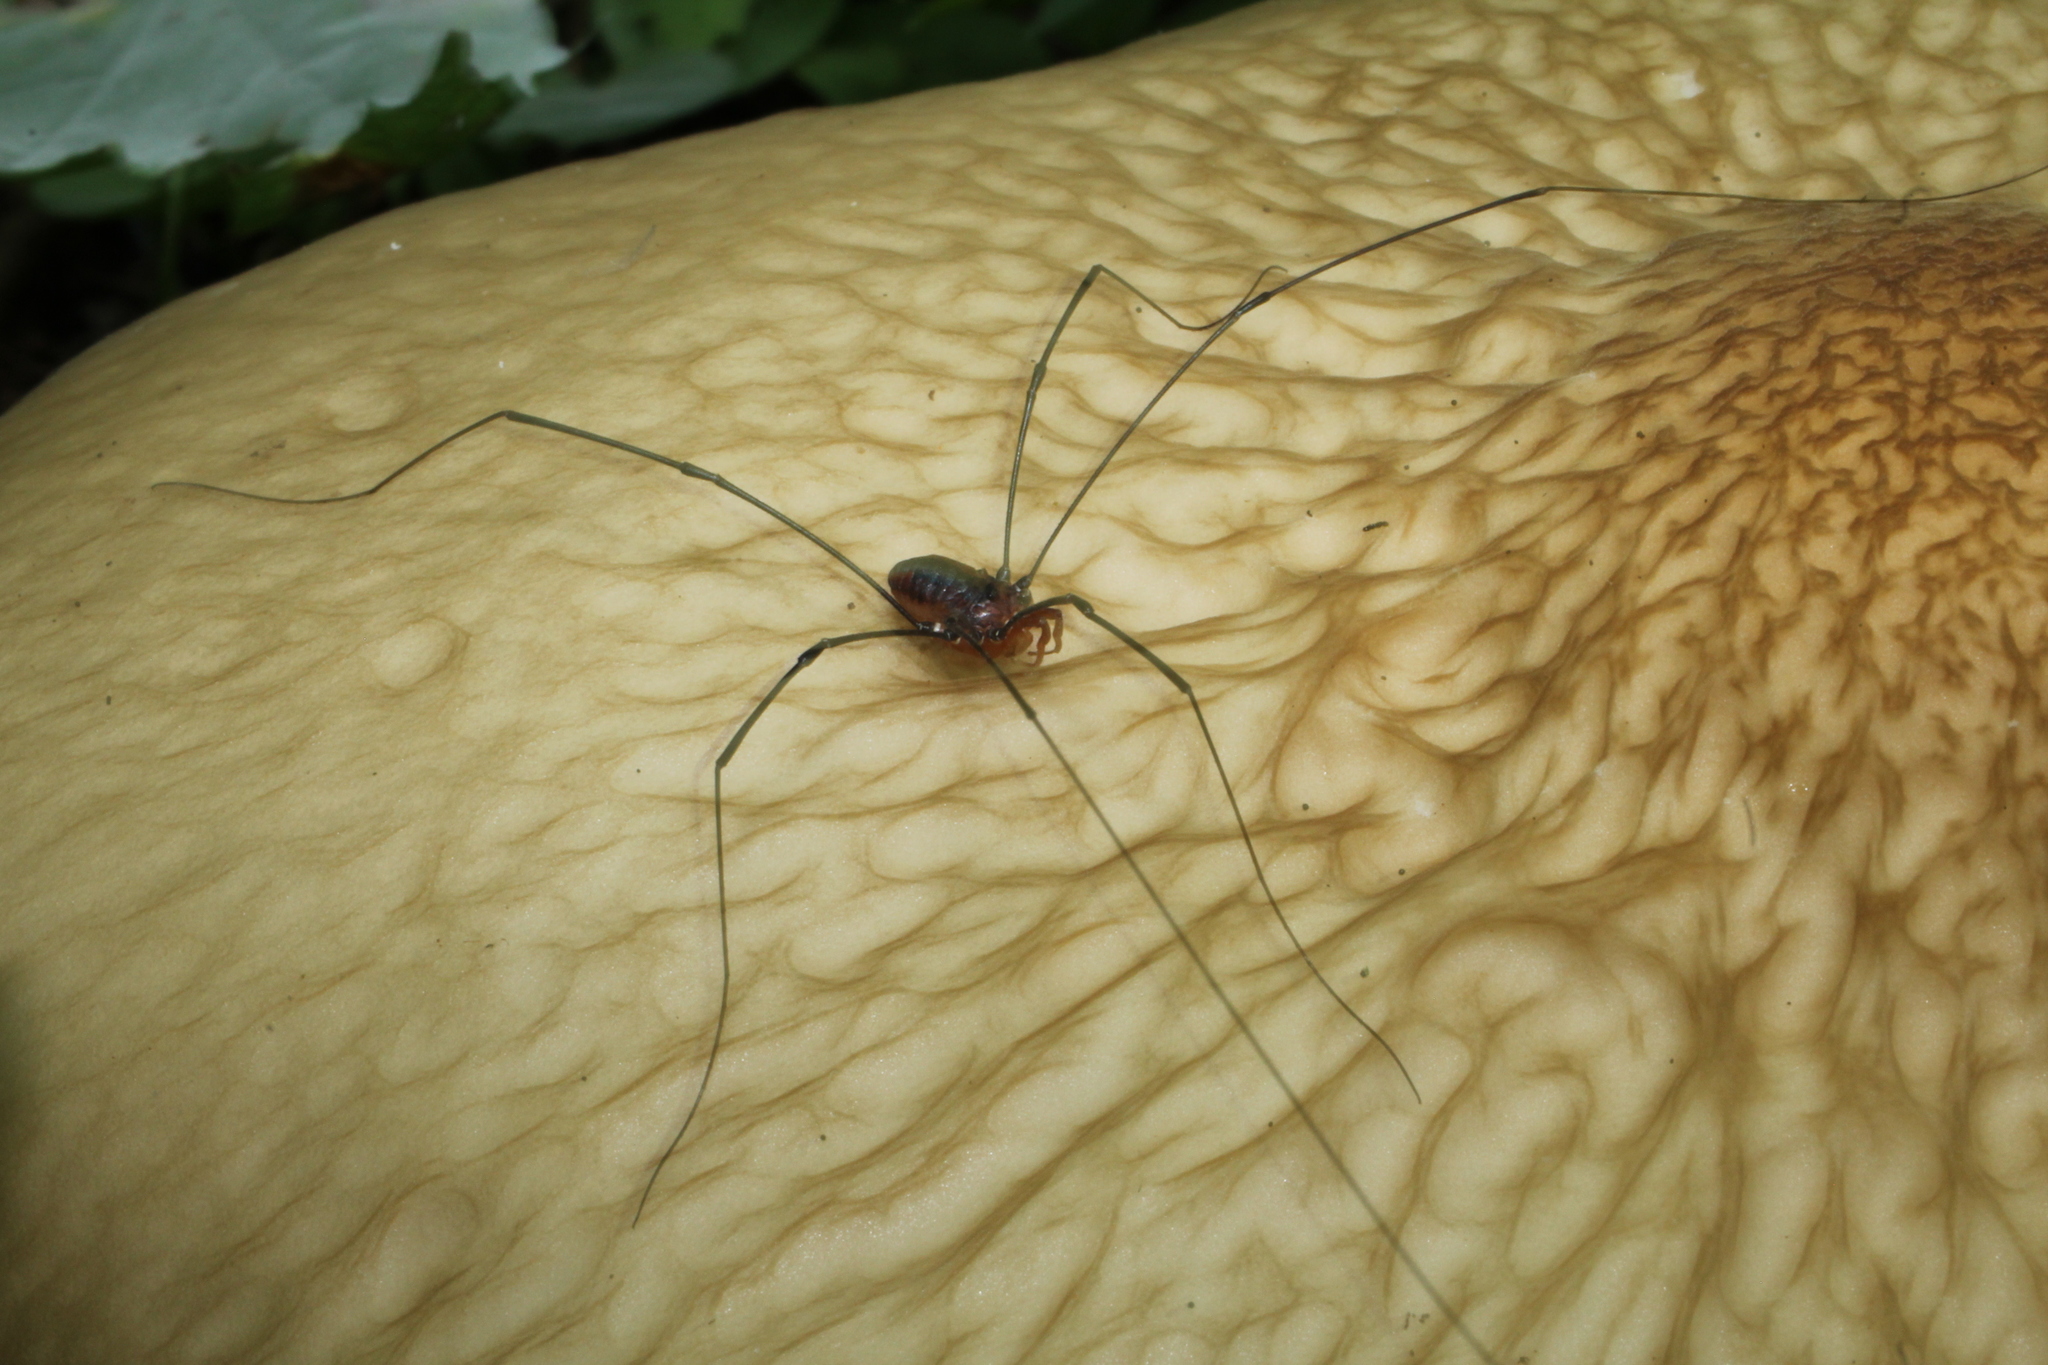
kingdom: Animalia
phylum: Arthropoda
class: Arachnida
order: Opiliones
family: Sclerosomatidae
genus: Leiobunum
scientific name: Leiobunum vittatum
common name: Eastern harvestman
